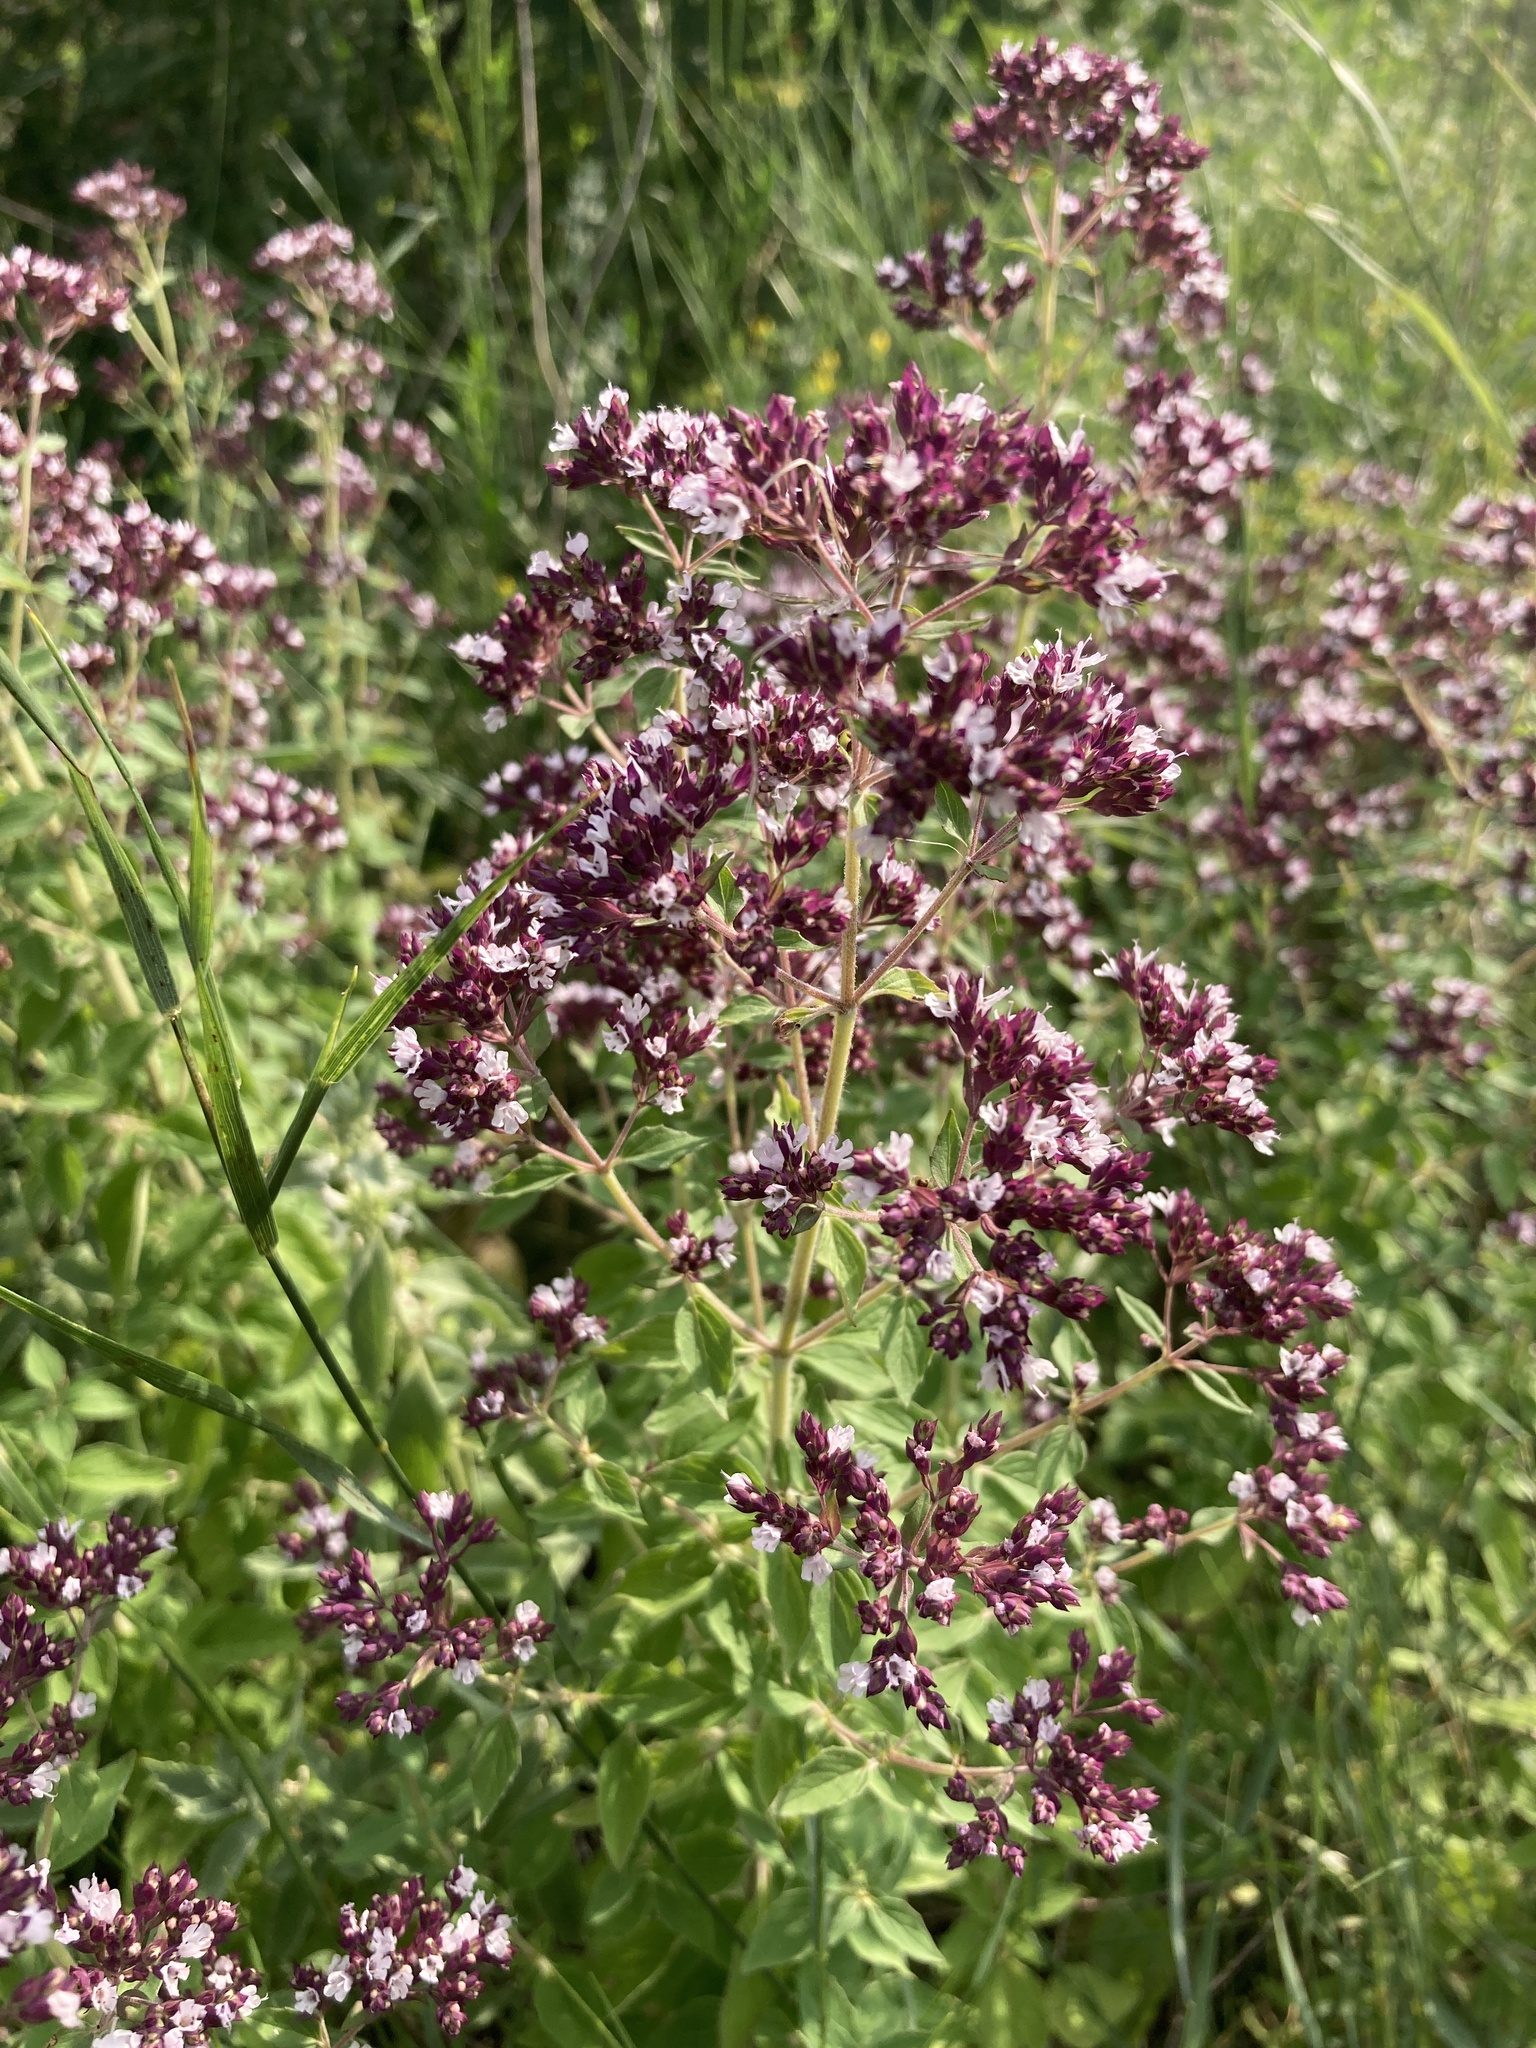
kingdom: Plantae
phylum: Tracheophyta
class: Magnoliopsida
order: Lamiales
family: Lamiaceae
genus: Origanum
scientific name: Origanum vulgare
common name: Wild marjoram
